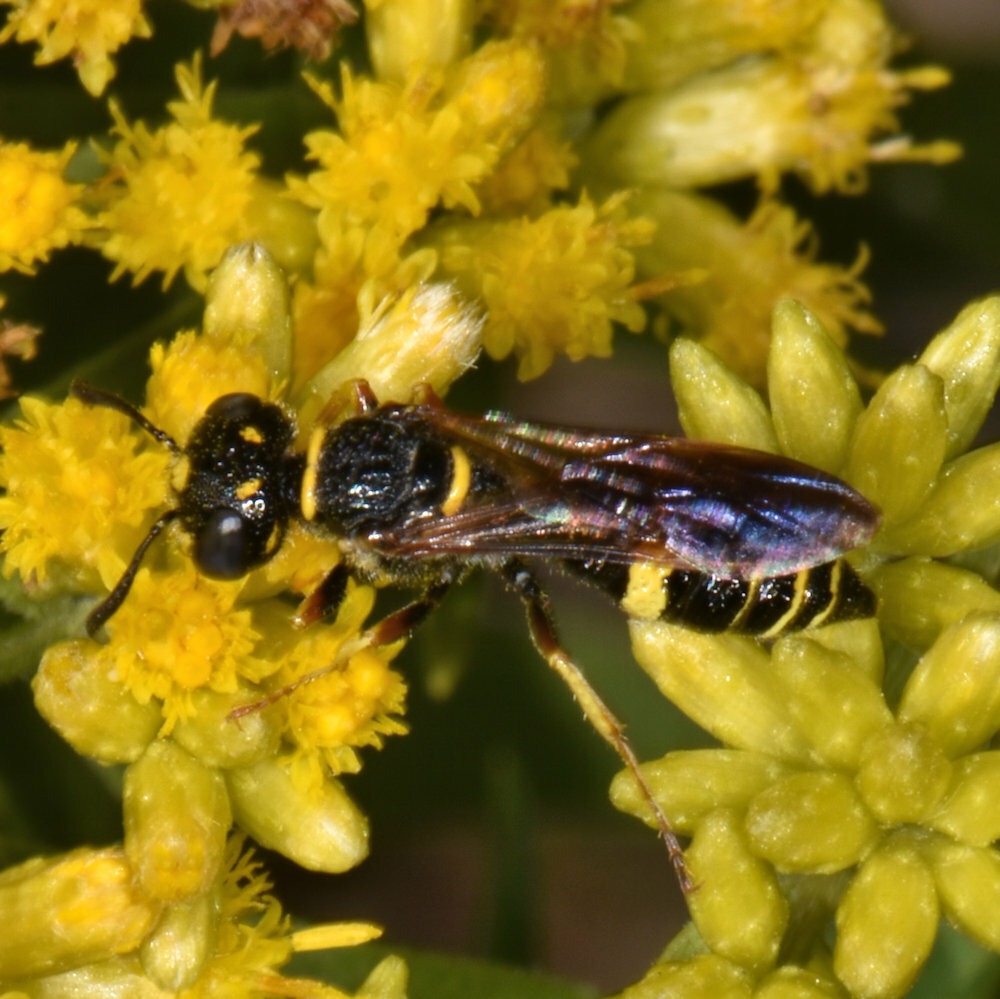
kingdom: Animalia
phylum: Arthropoda
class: Insecta
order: Hymenoptera
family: Crabronidae
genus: Philanthus
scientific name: Philanthus gibbosus
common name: Humped beewolf
